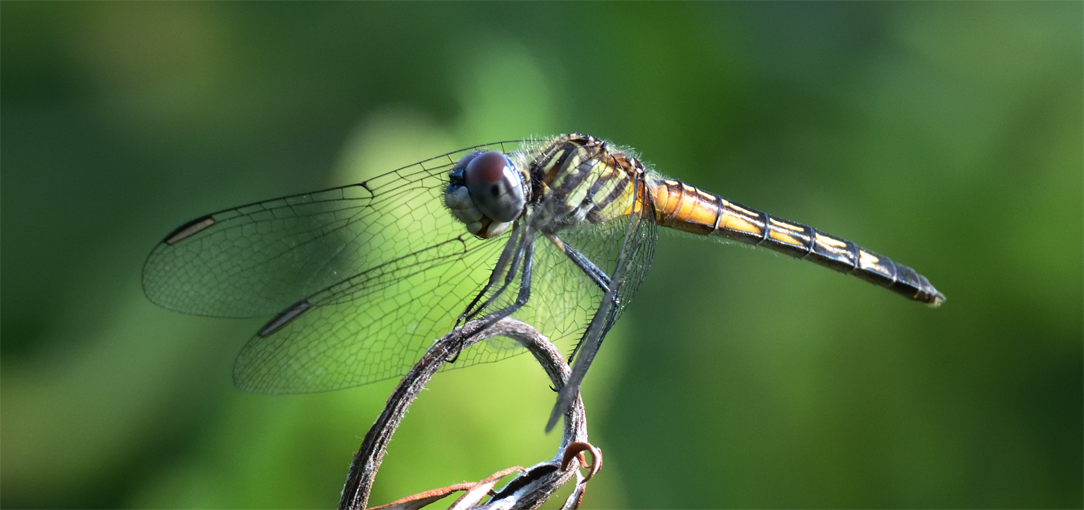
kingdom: Animalia
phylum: Arthropoda
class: Insecta
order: Odonata
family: Libellulidae
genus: Pachydiplax
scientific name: Pachydiplax longipennis
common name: Blue dasher
